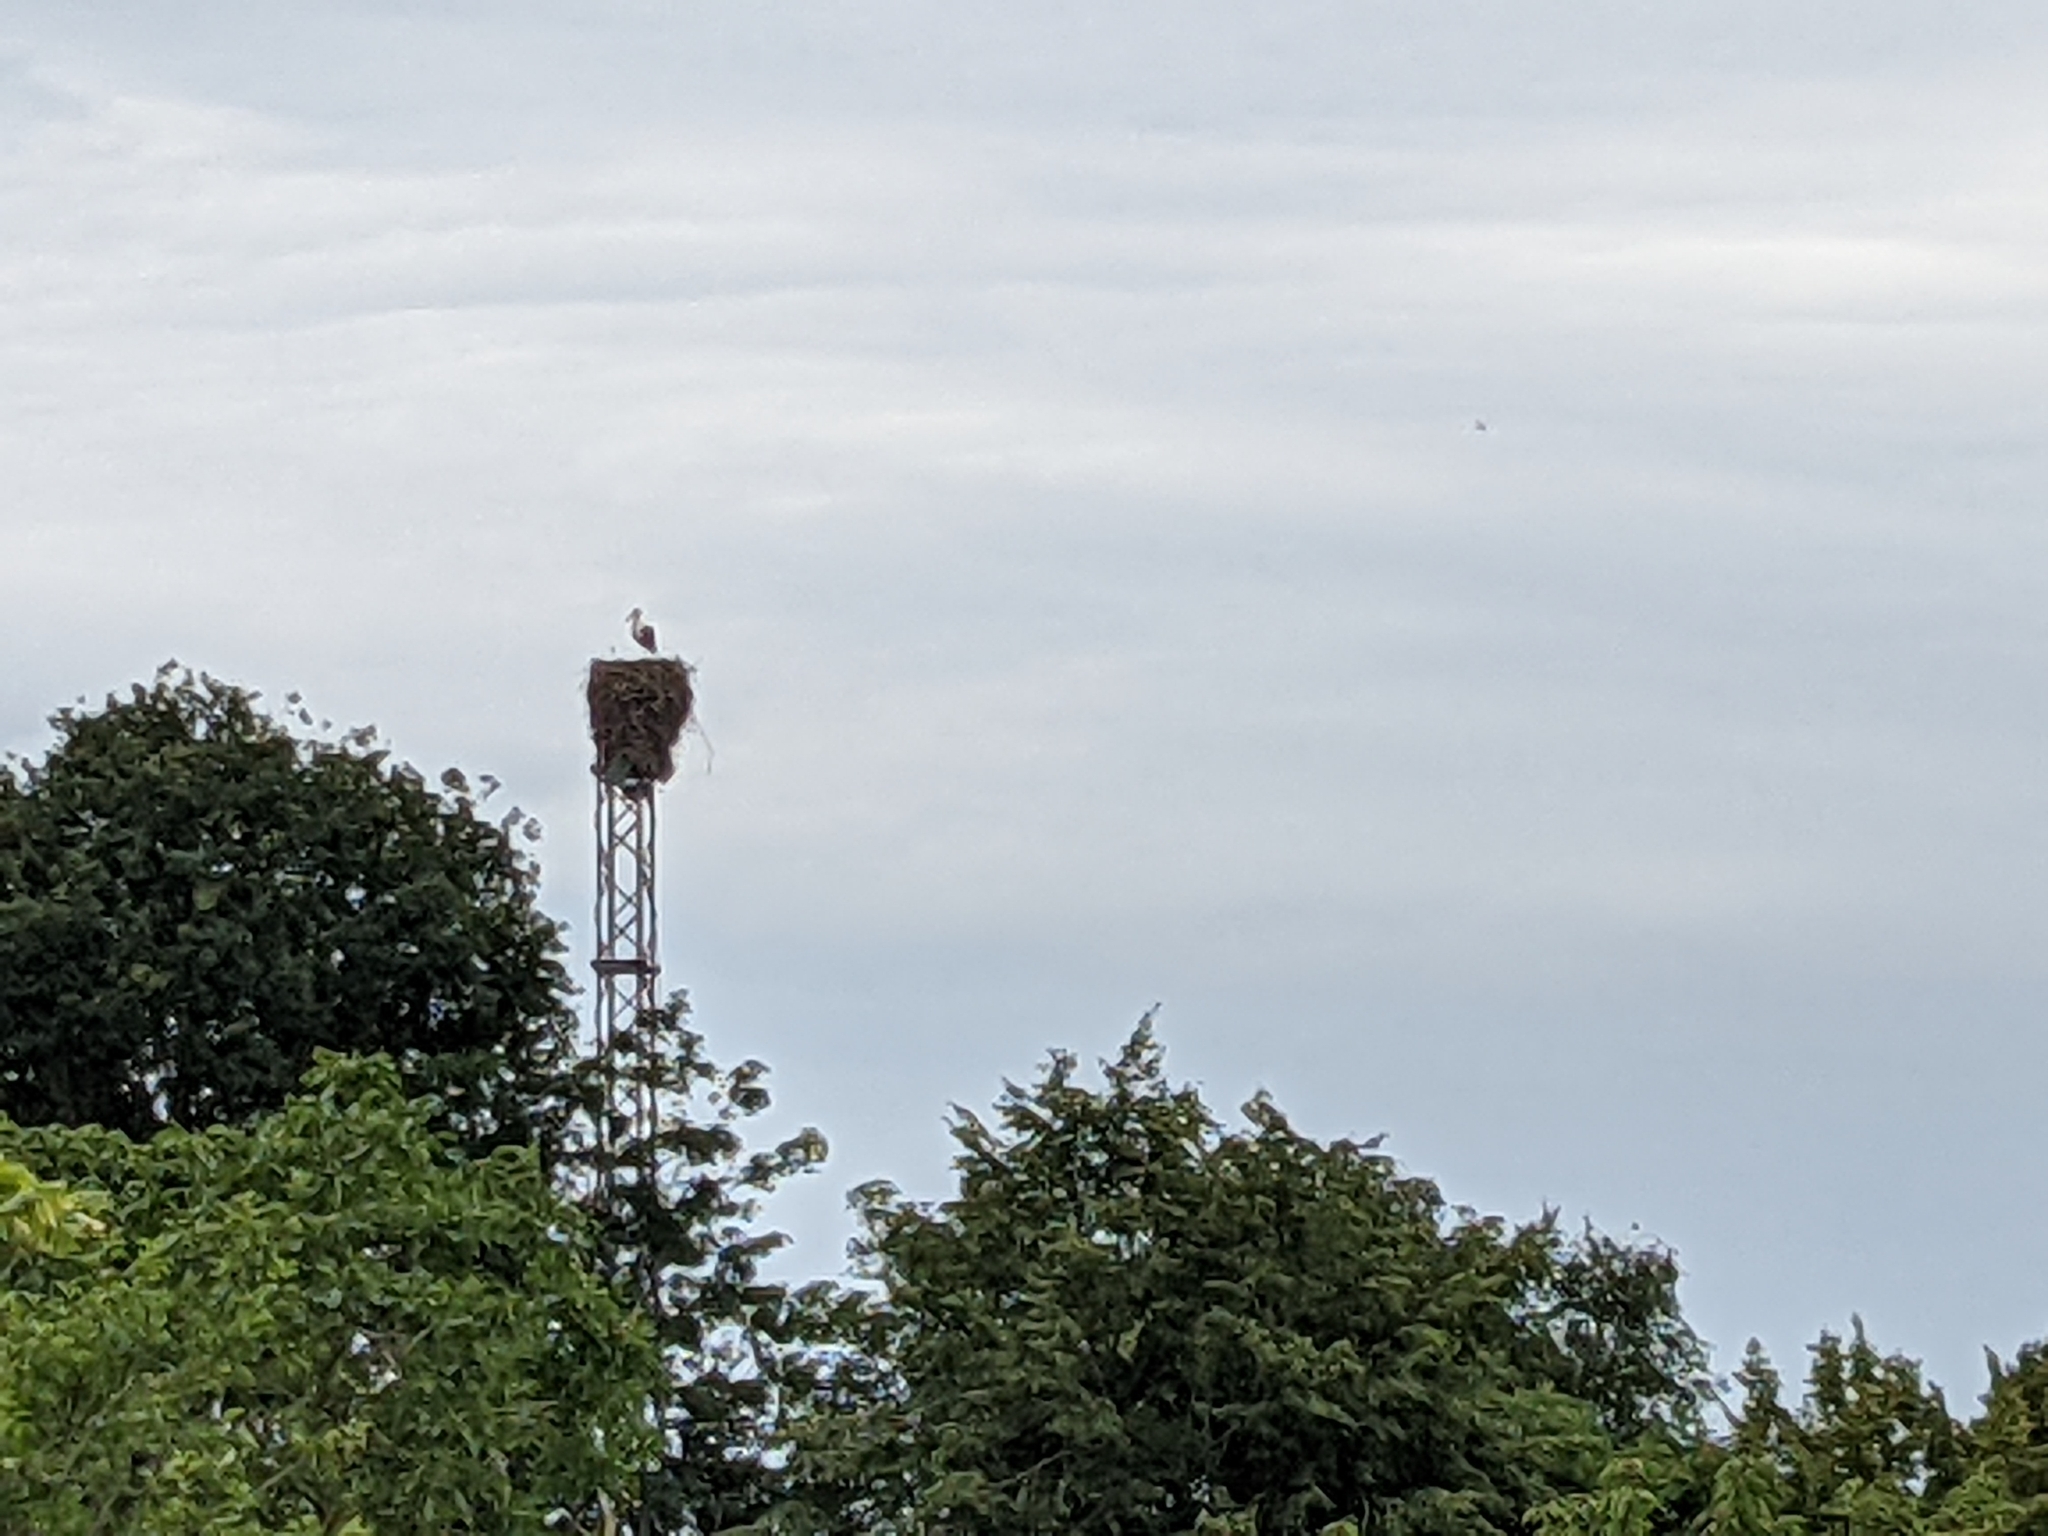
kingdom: Animalia
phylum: Chordata
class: Aves
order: Ciconiiformes
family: Ciconiidae
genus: Ciconia
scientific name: Ciconia ciconia
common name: White stork
